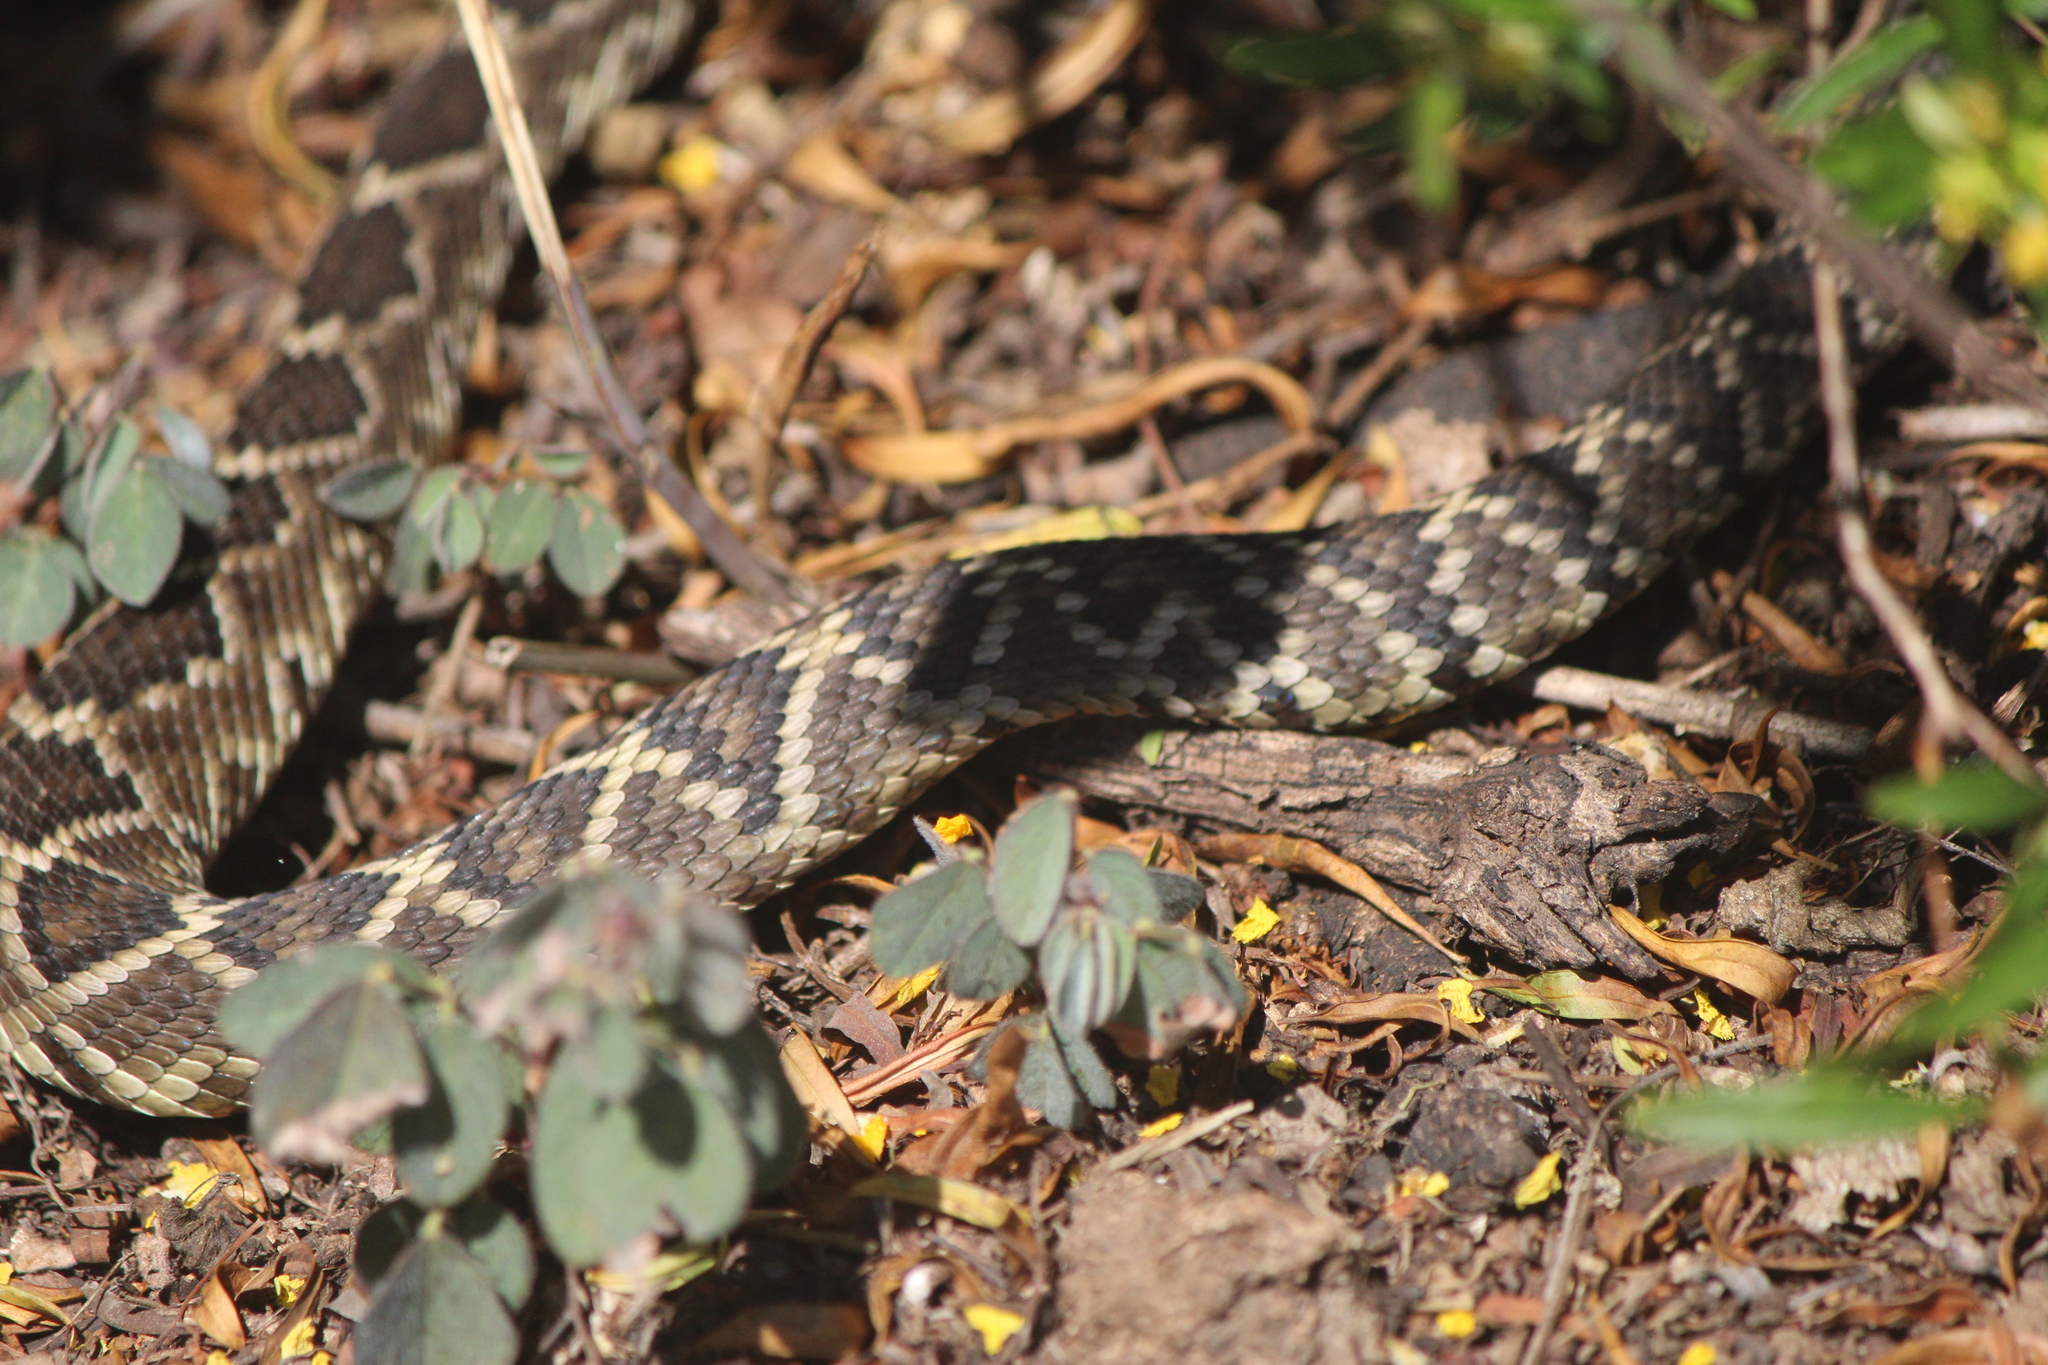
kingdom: Animalia
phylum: Chordata
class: Squamata
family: Viperidae
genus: Crotalus
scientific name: Crotalus molossus
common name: Black tailed rattlesnake
